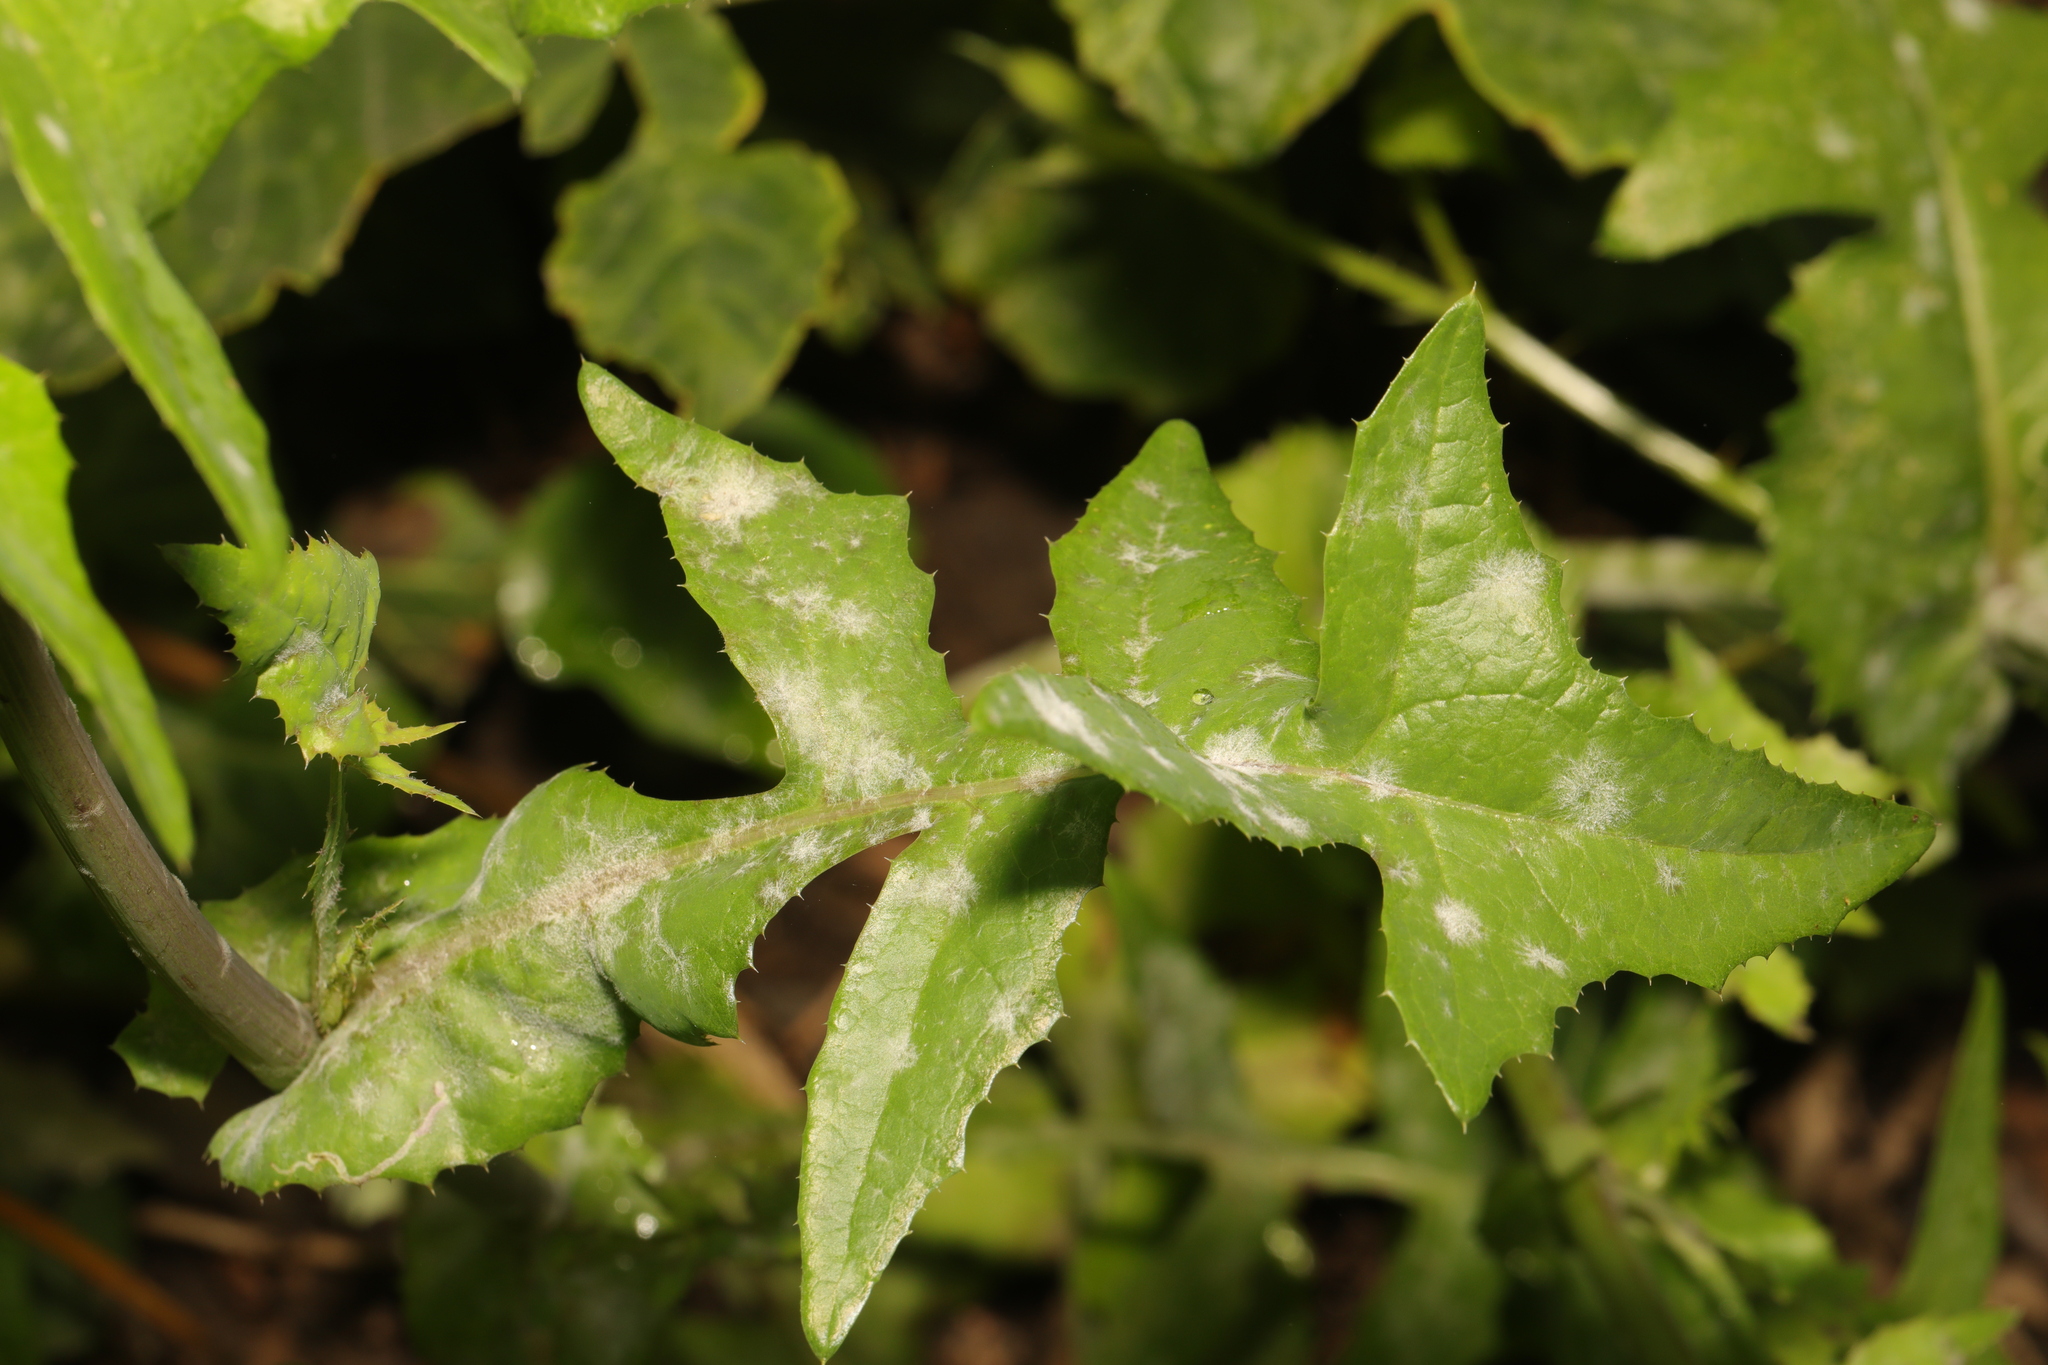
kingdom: Plantae
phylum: Tracheophyta
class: Magnoliopsida
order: Asterales
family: Asteraceae
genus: Sonchus
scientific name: Sonchus oleraceus
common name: Common sowthistle
